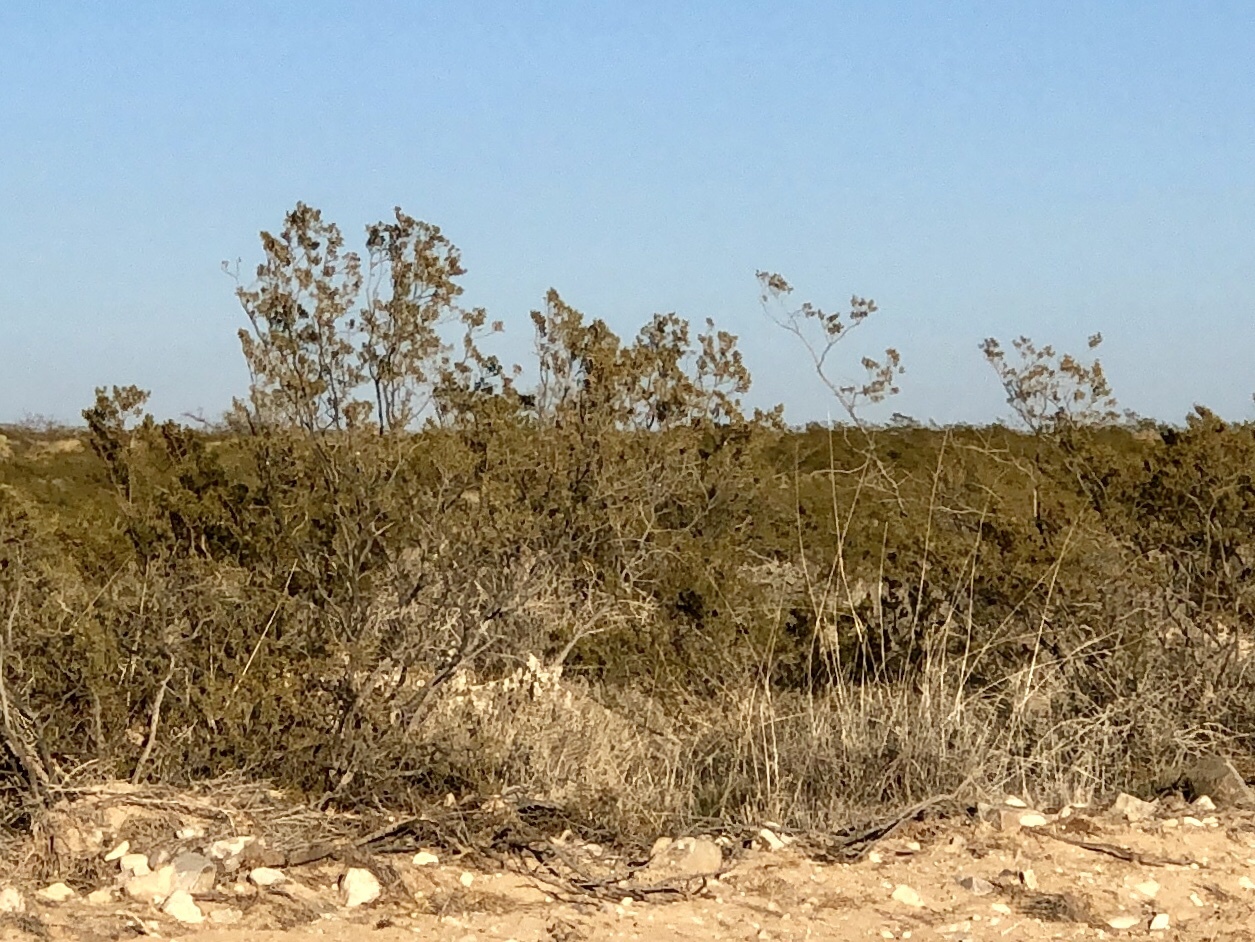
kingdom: Plantae
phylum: Tracheophyta
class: Magnoliopsida
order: Zygophyllales
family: Zygophyllaceae
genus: Larrea
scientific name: Larrea tridentata
